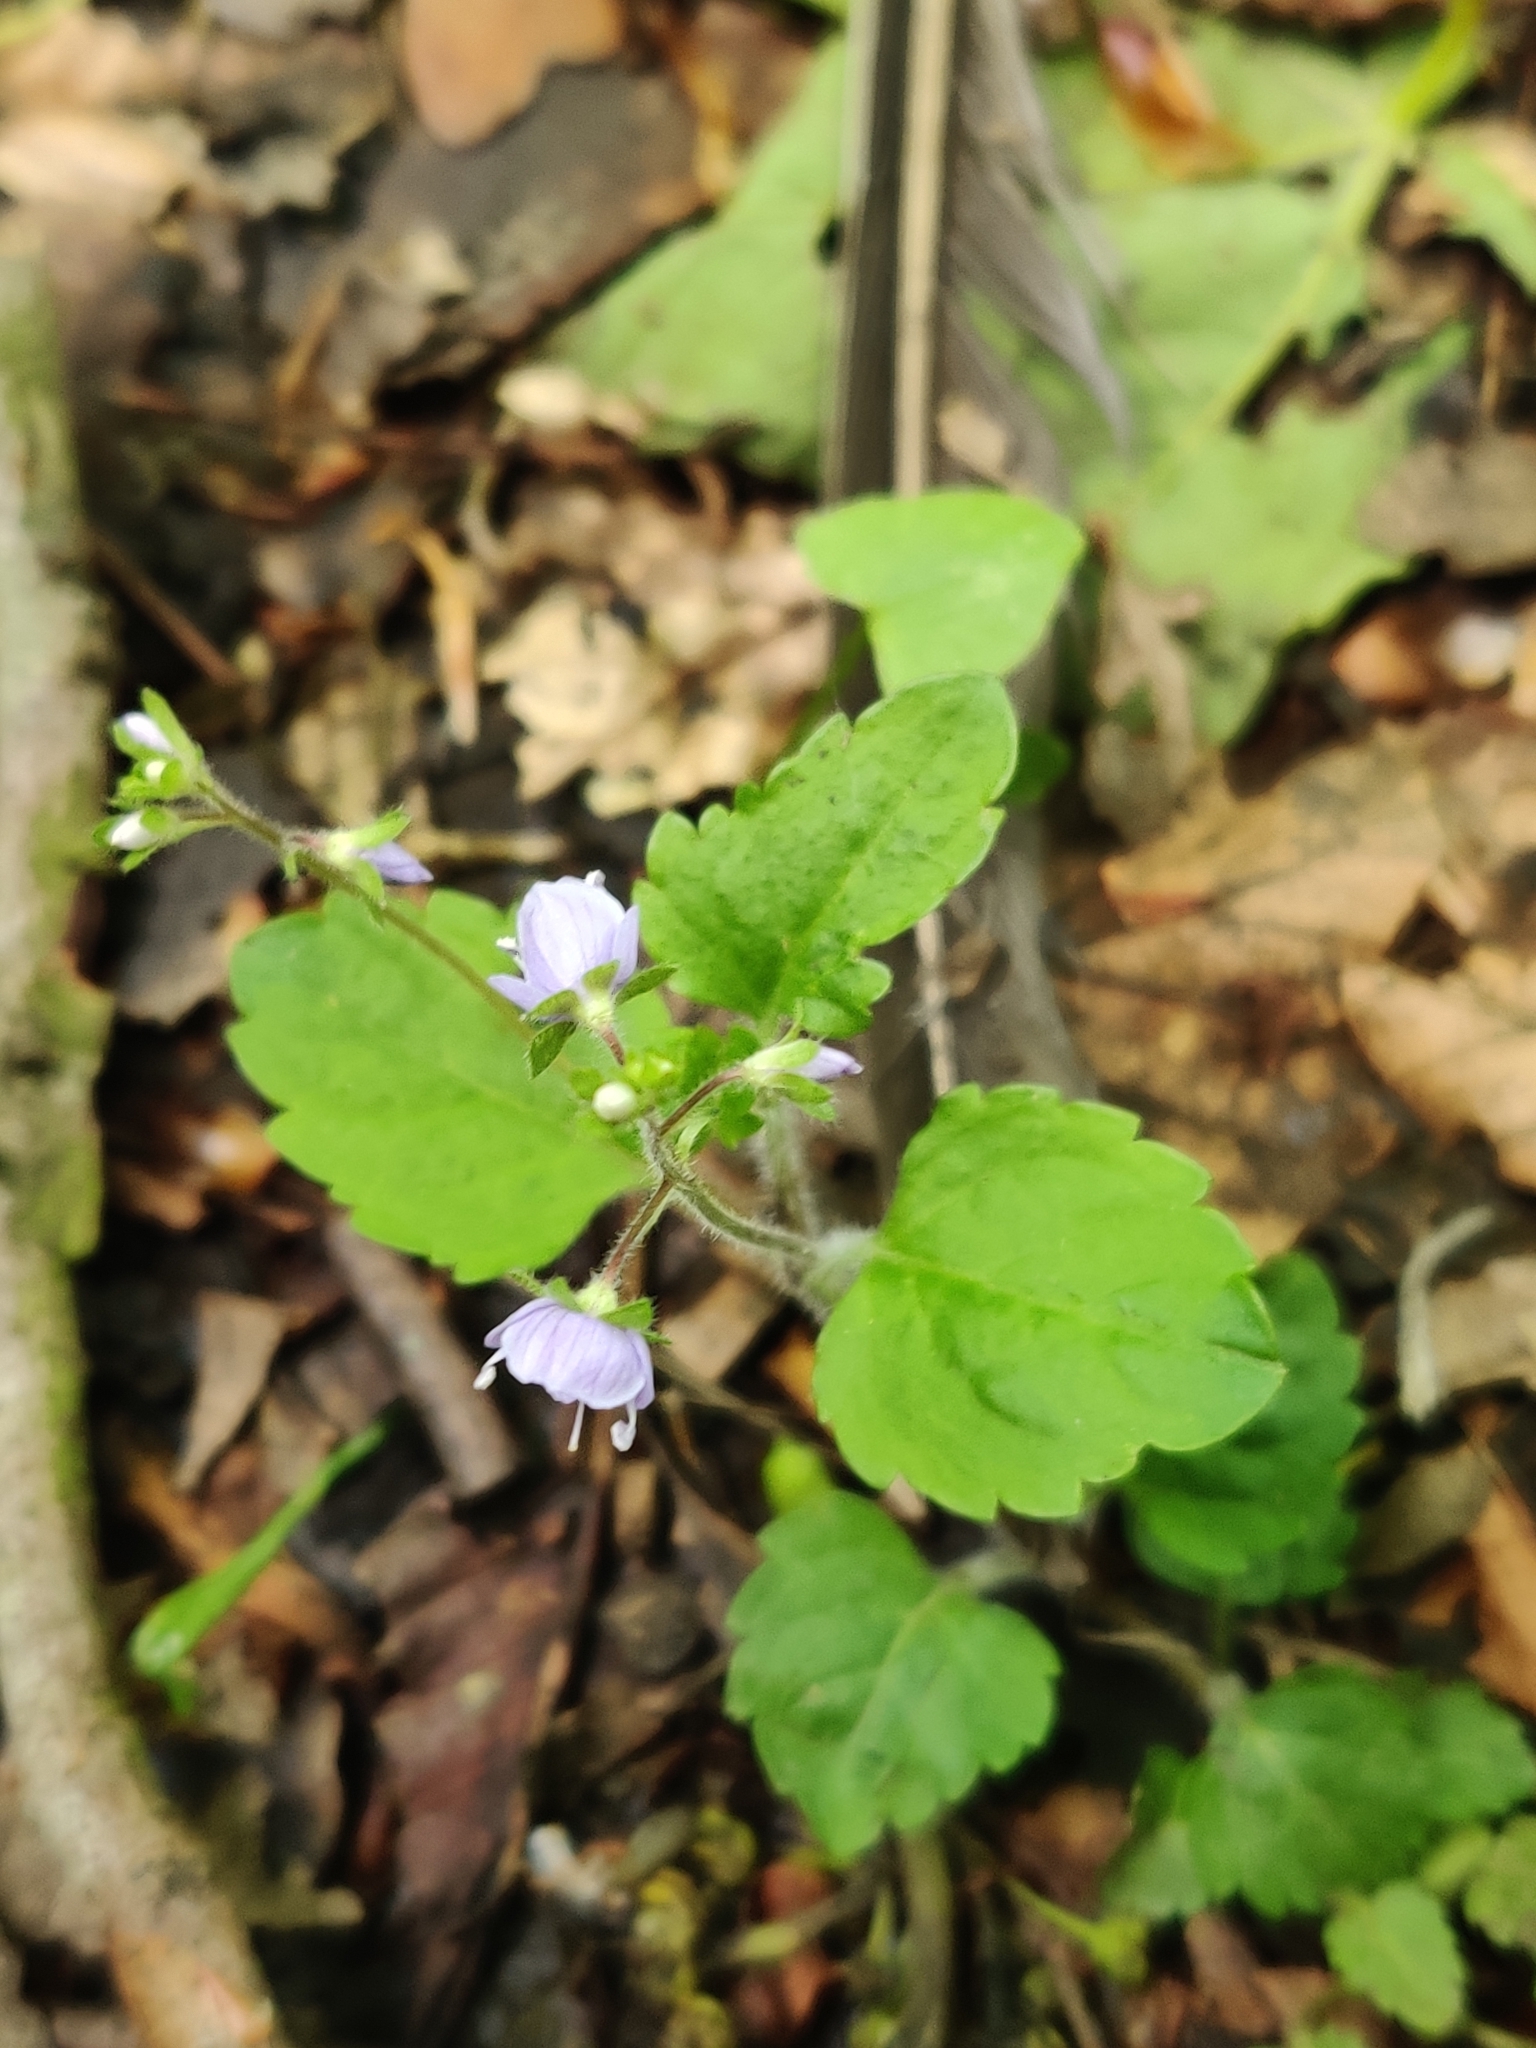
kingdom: Plantae
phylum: Tracheophyta
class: Magnoliopsida
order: Lamiales
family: Plantaginaceae
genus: Veronica
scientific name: Veronica montana
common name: Wood speedwell
